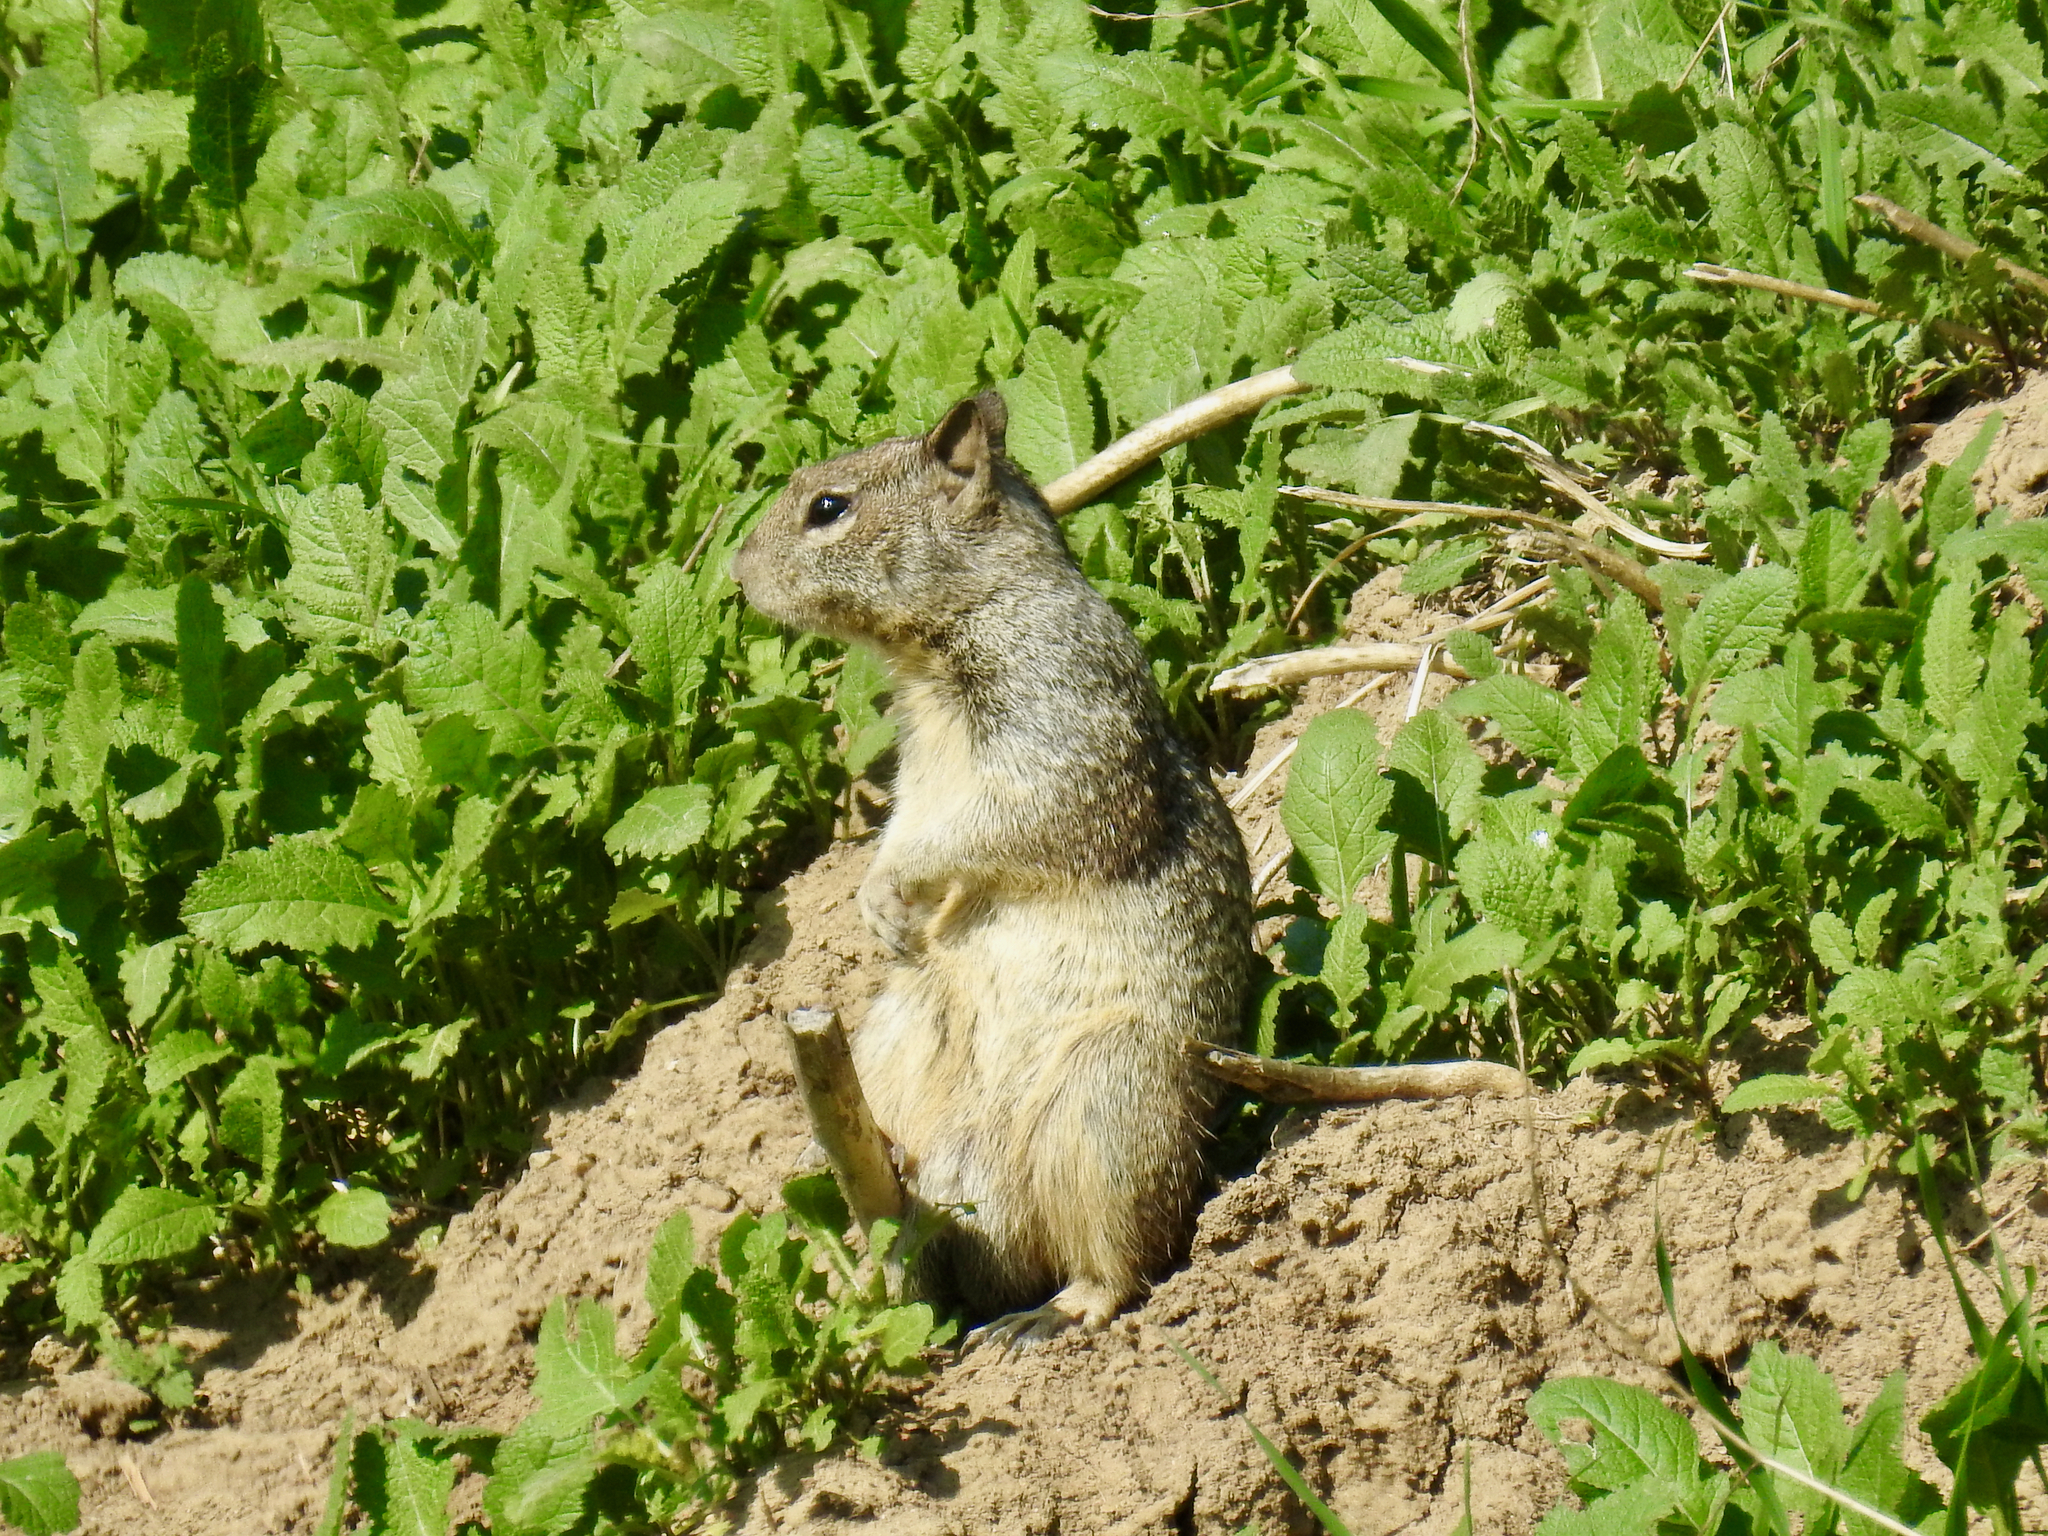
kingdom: Animalia
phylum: Chordata
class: Mammalia
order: Rodentia
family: Sciuridae
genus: Otospermophilus
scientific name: Otospermophilus beecheyi
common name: California ground squirrel
